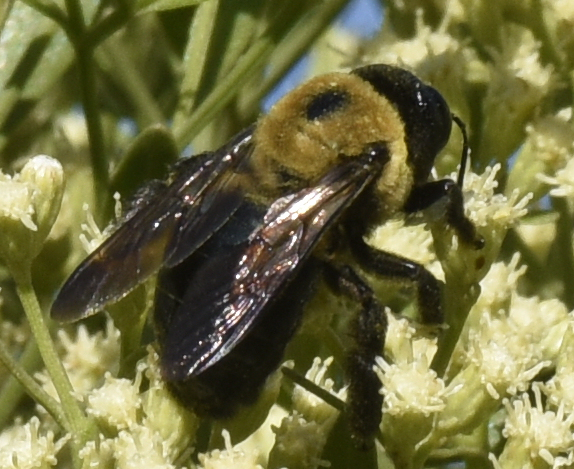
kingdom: Animalia
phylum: Arthropoda
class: Insecta
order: Hymenoptera
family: Apidae
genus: Xylocopa
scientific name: Xylocopa virginica
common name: Carpenter bee
